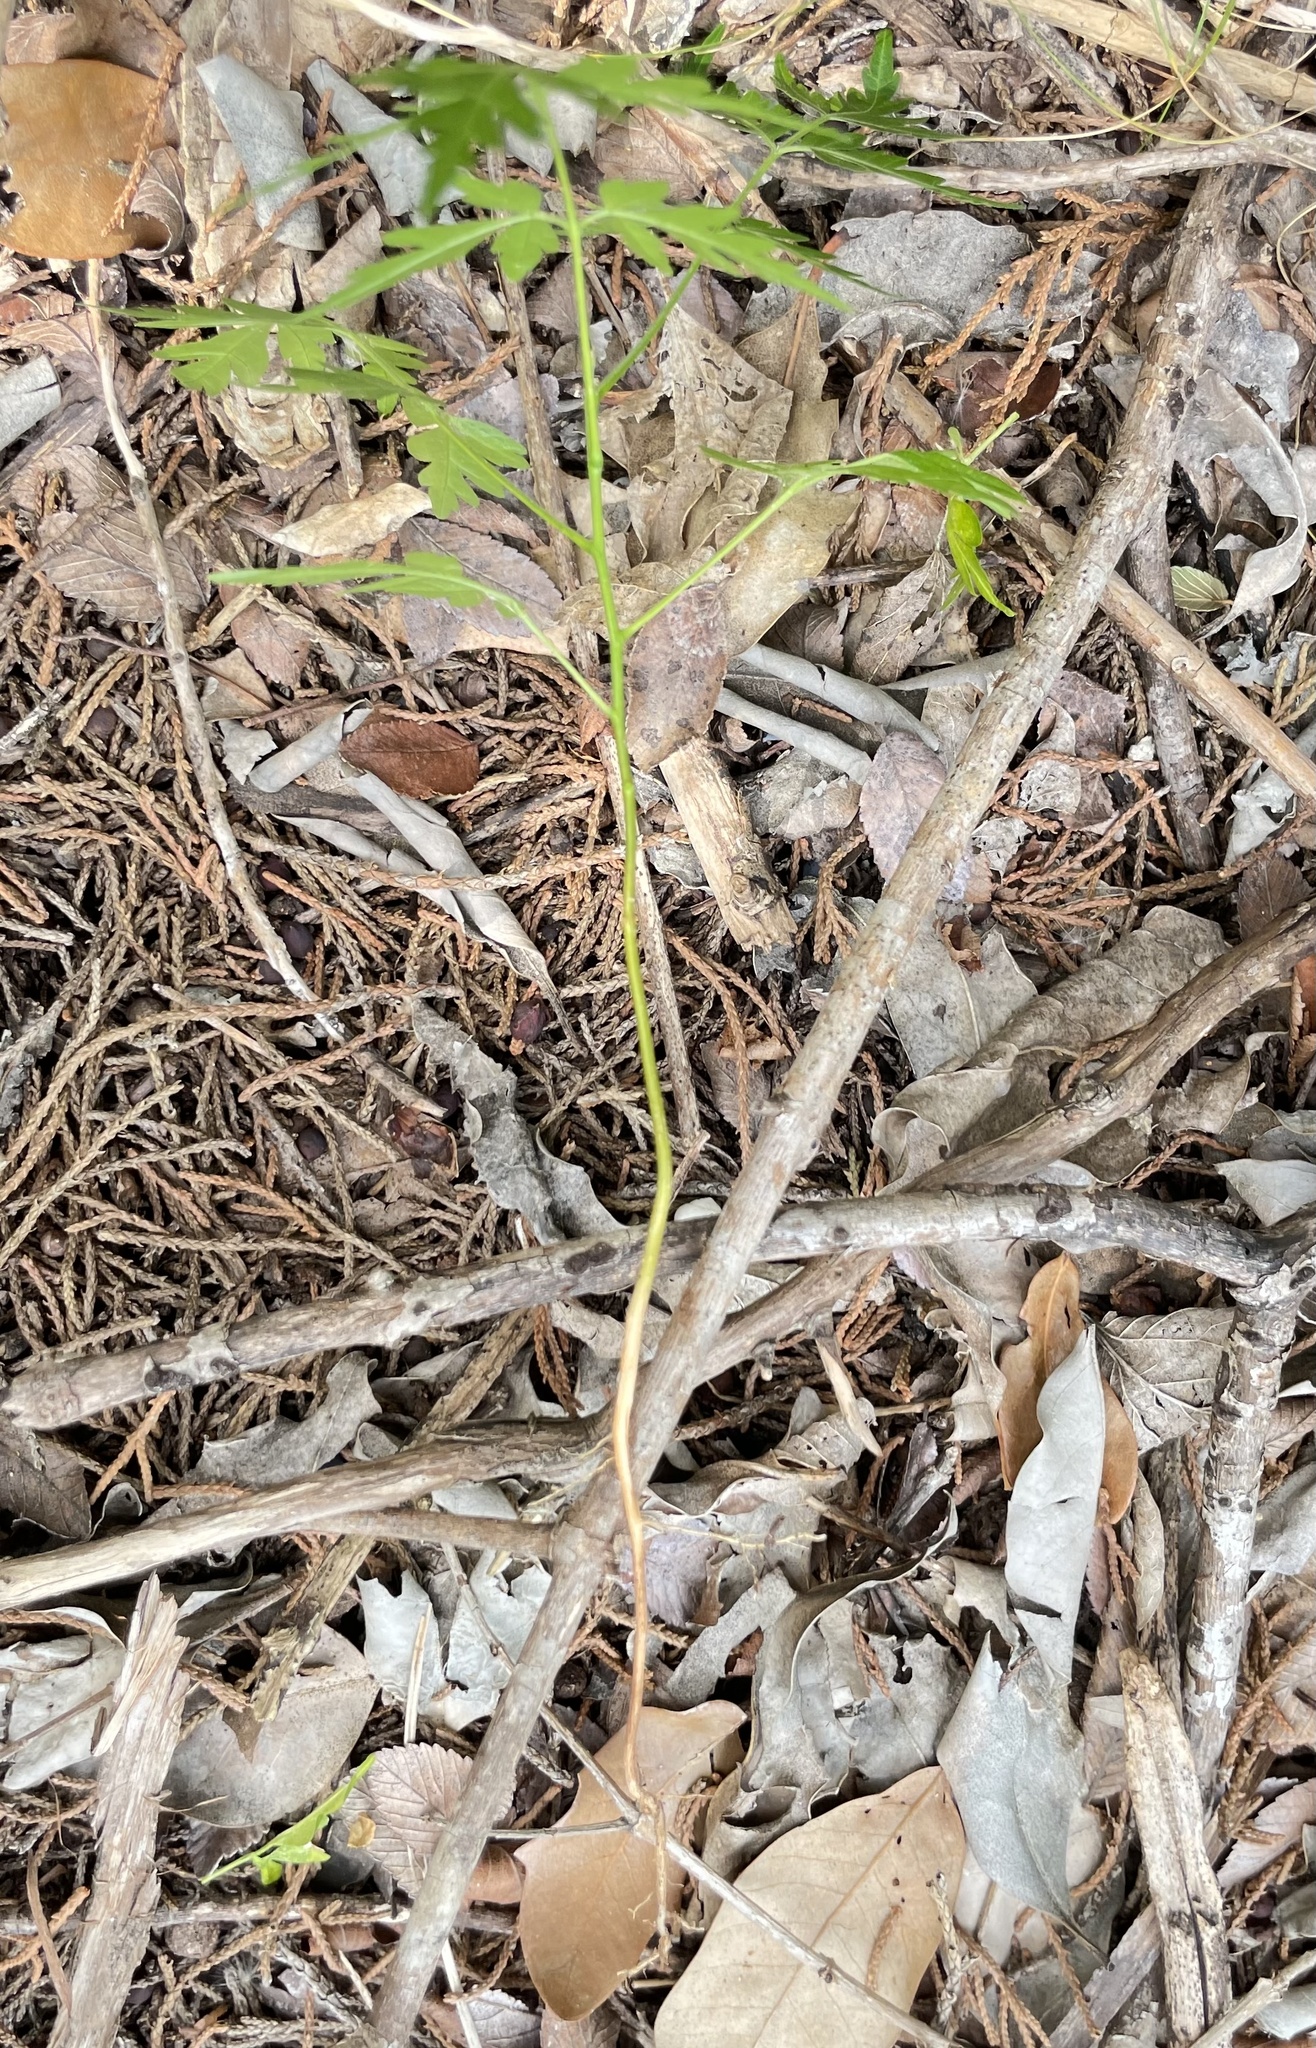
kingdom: Plantae
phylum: Tracheophyta
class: Magnoliopsida
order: Sapindales
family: Meliaceae
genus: Melia
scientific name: Melia azedarach
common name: Chinaberrytree
